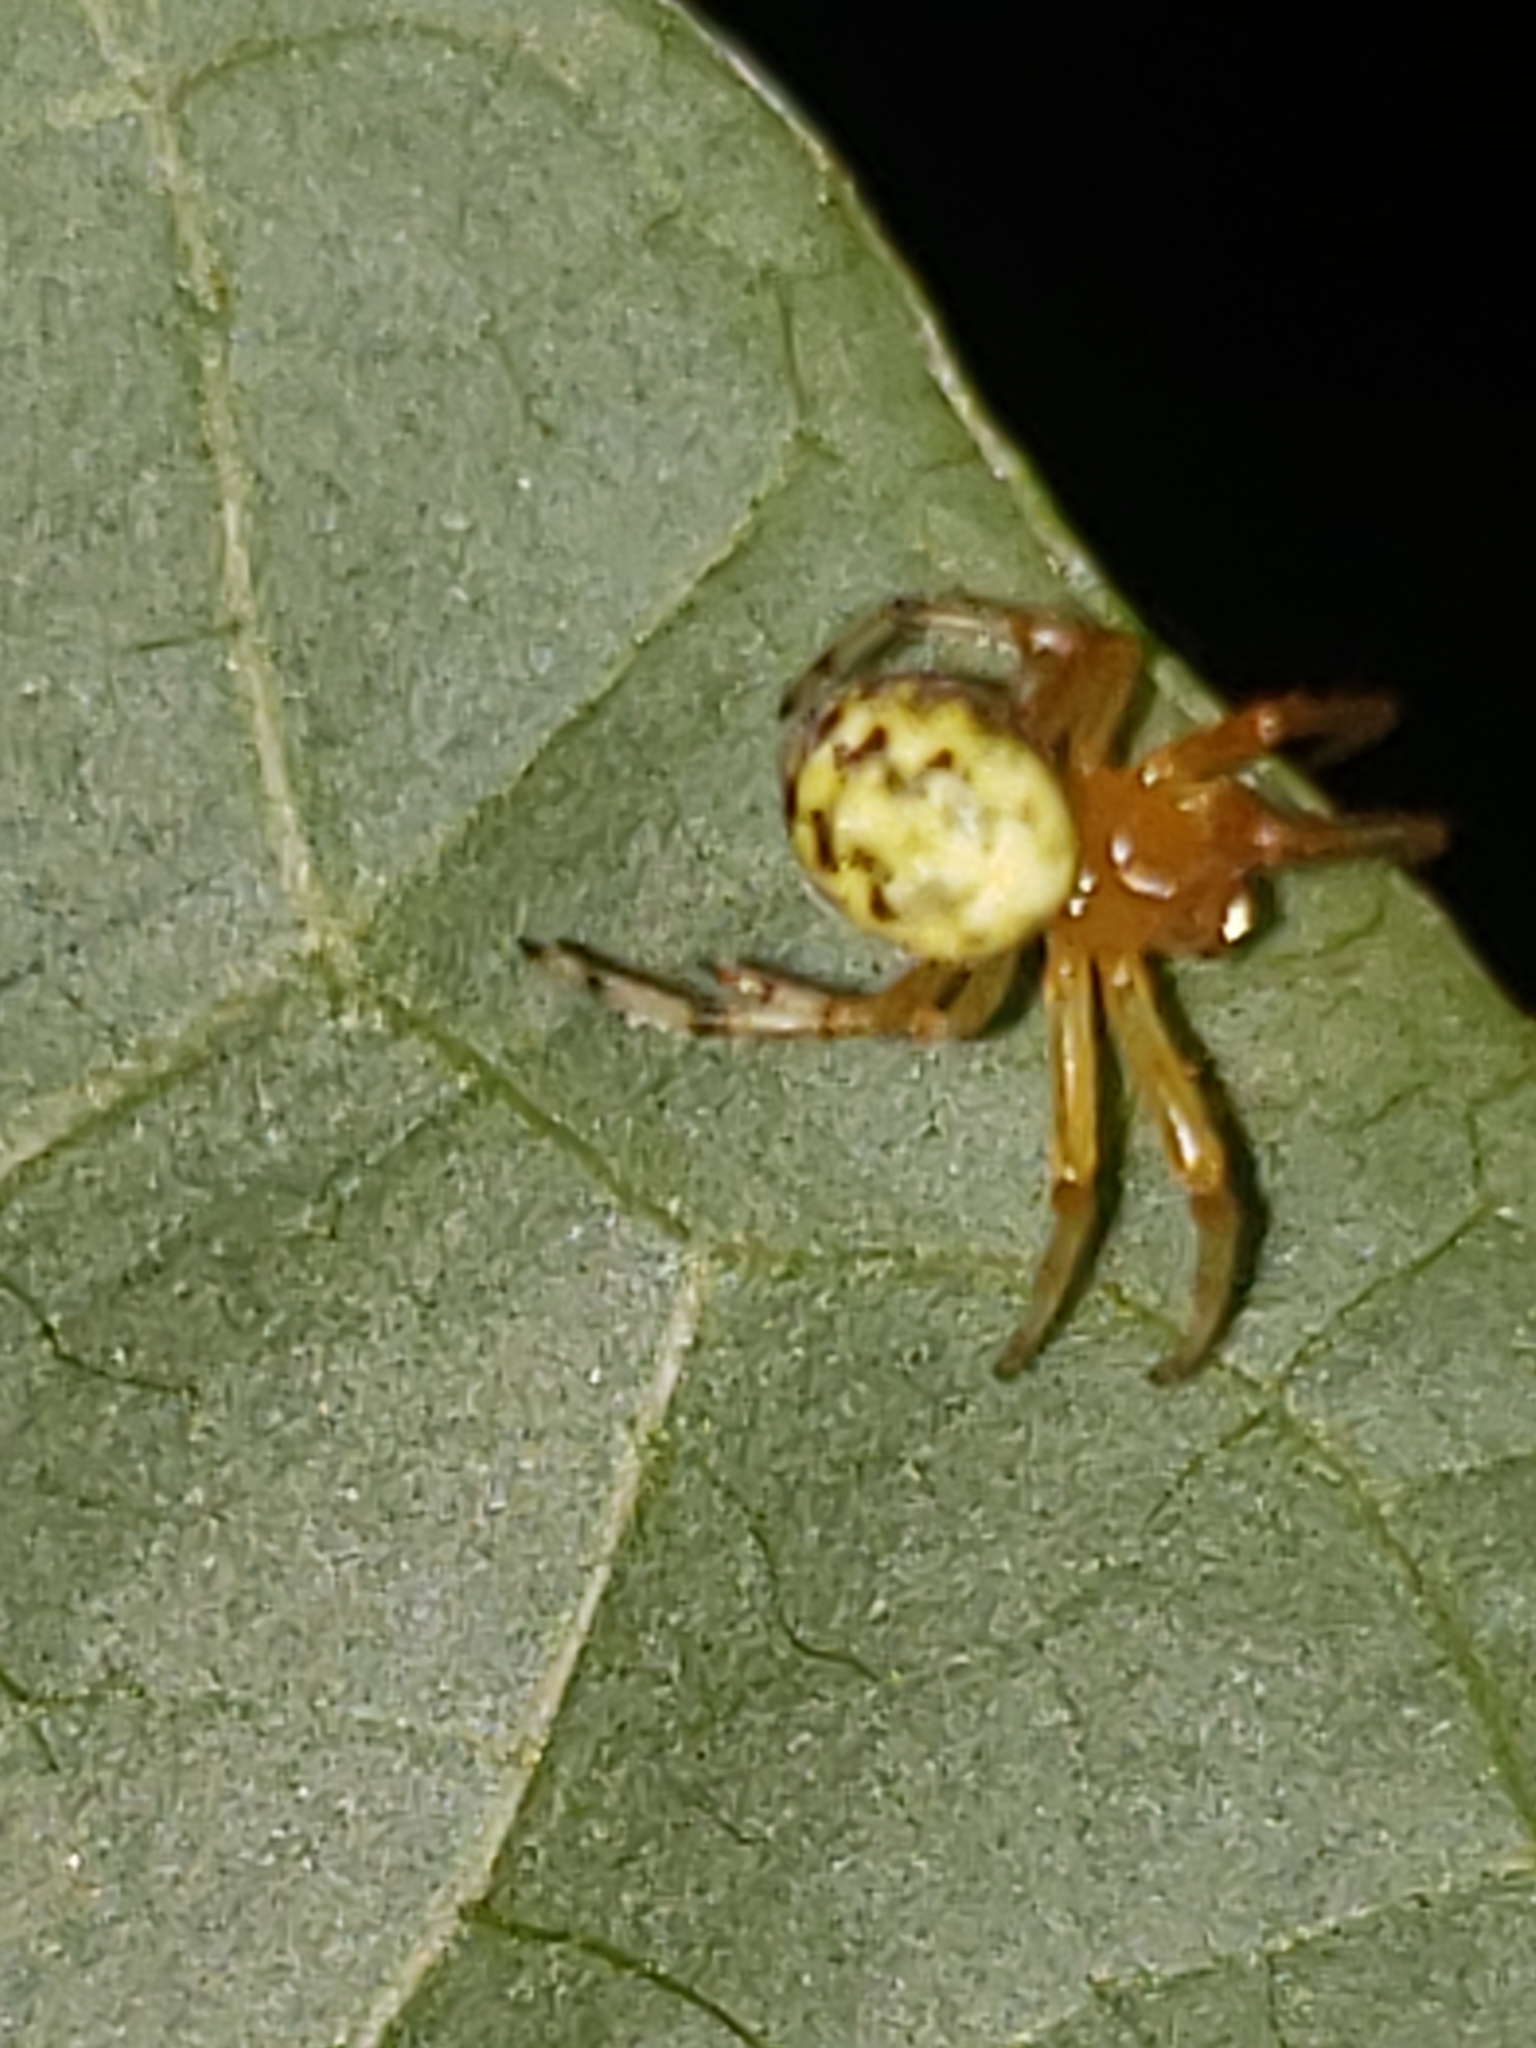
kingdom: Animalia
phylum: Arthropoda
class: Arachnida
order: Araneae
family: Araneidae
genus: Araneus
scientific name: Araneus marmoreus
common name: Marbled orbweaver
